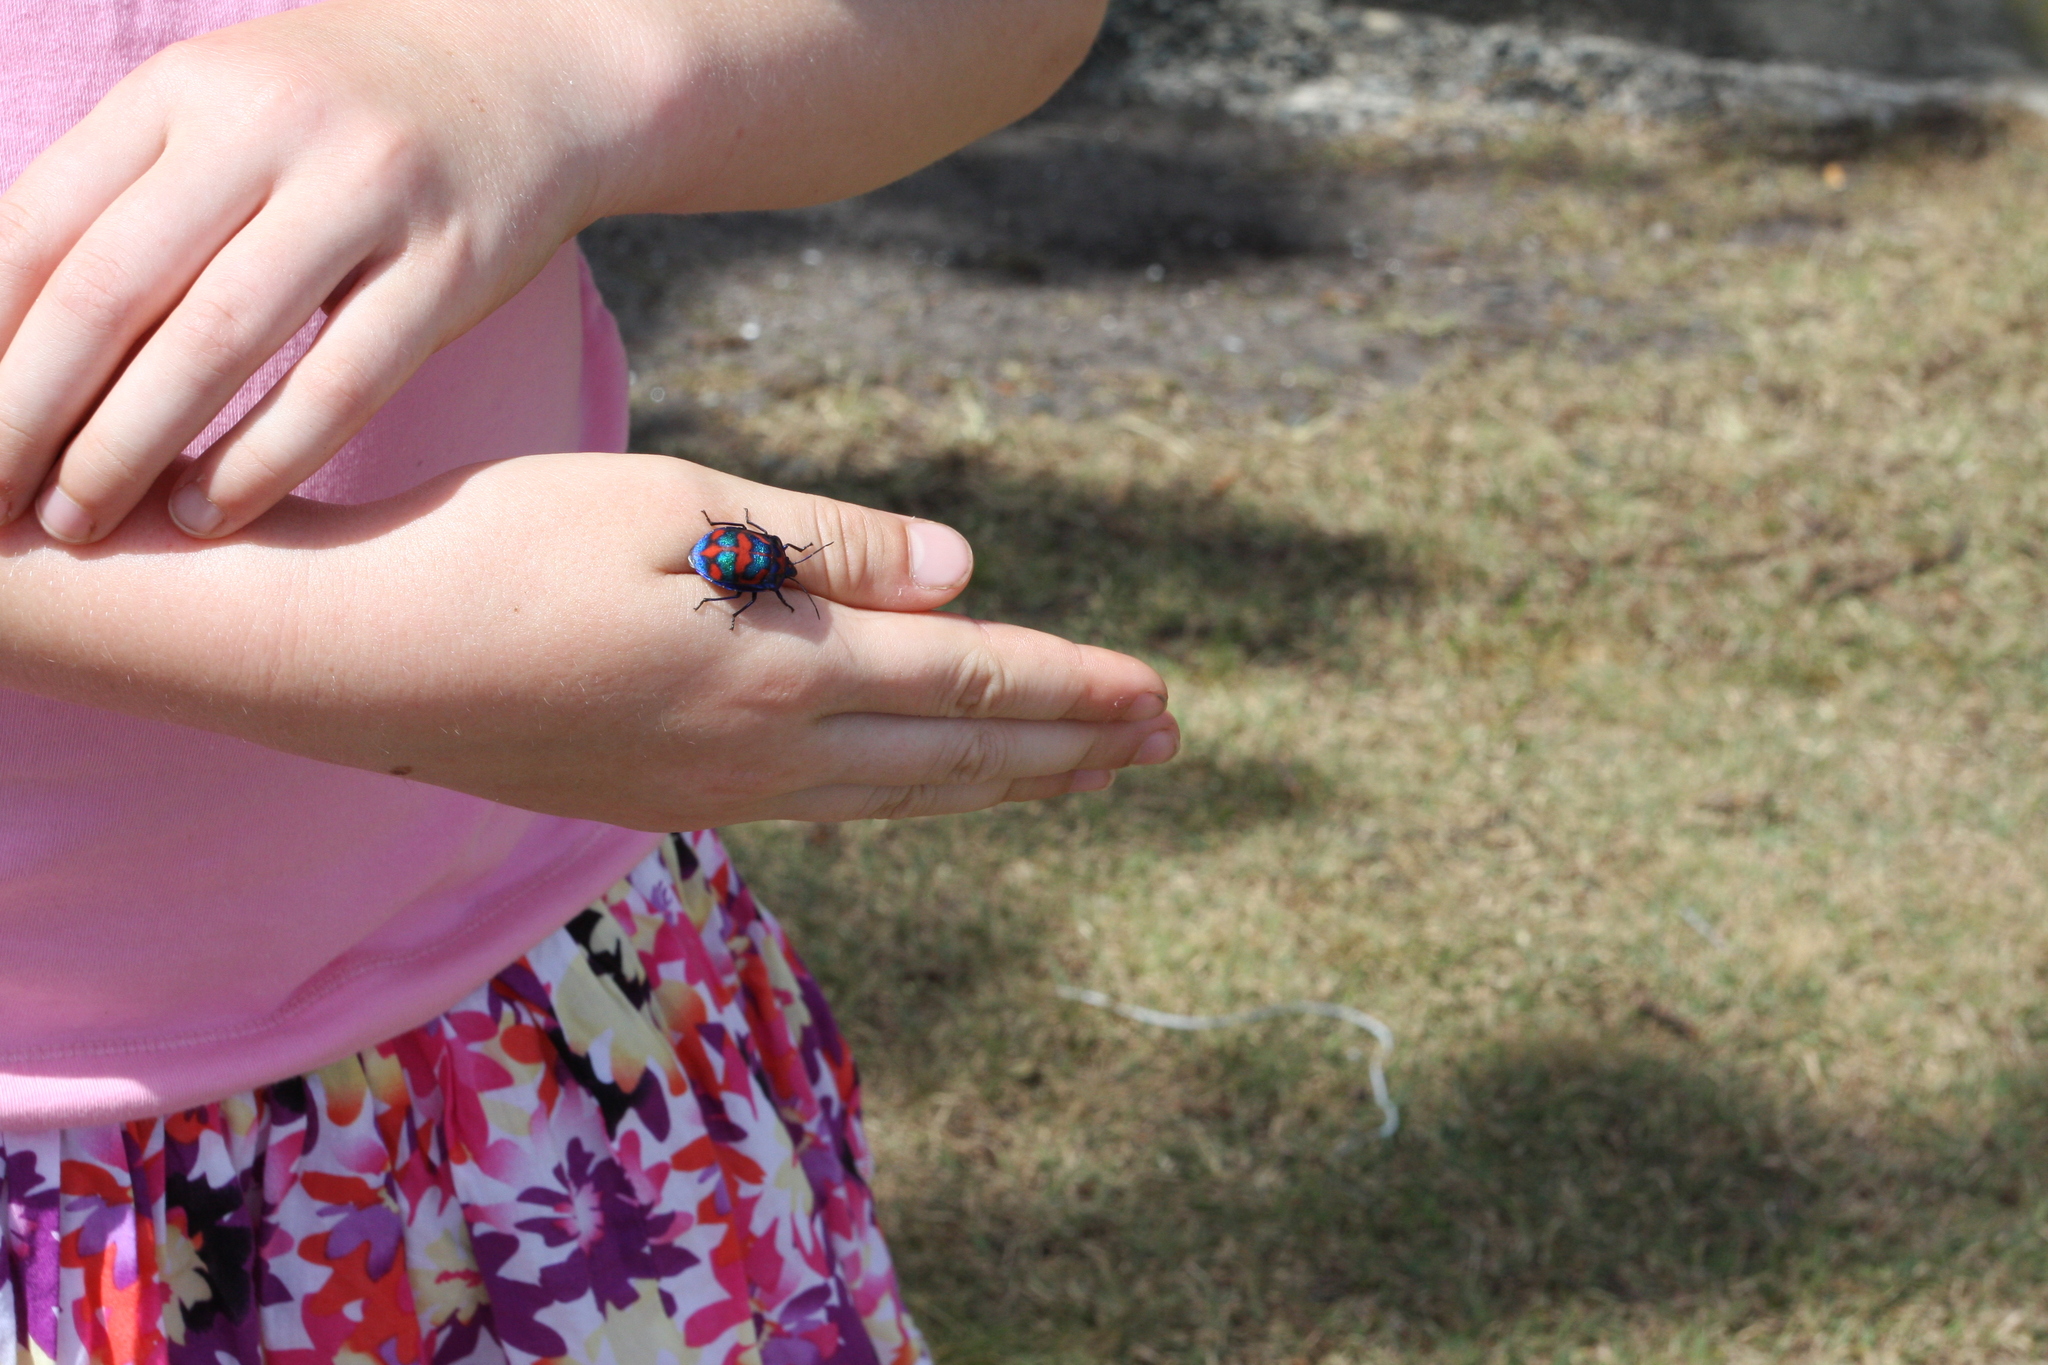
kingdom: Animalia
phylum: Arthropoda
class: Insecta
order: Hemiptera
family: Scutelleridae
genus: Tectocoris
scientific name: Tectocoris diophthalmus
